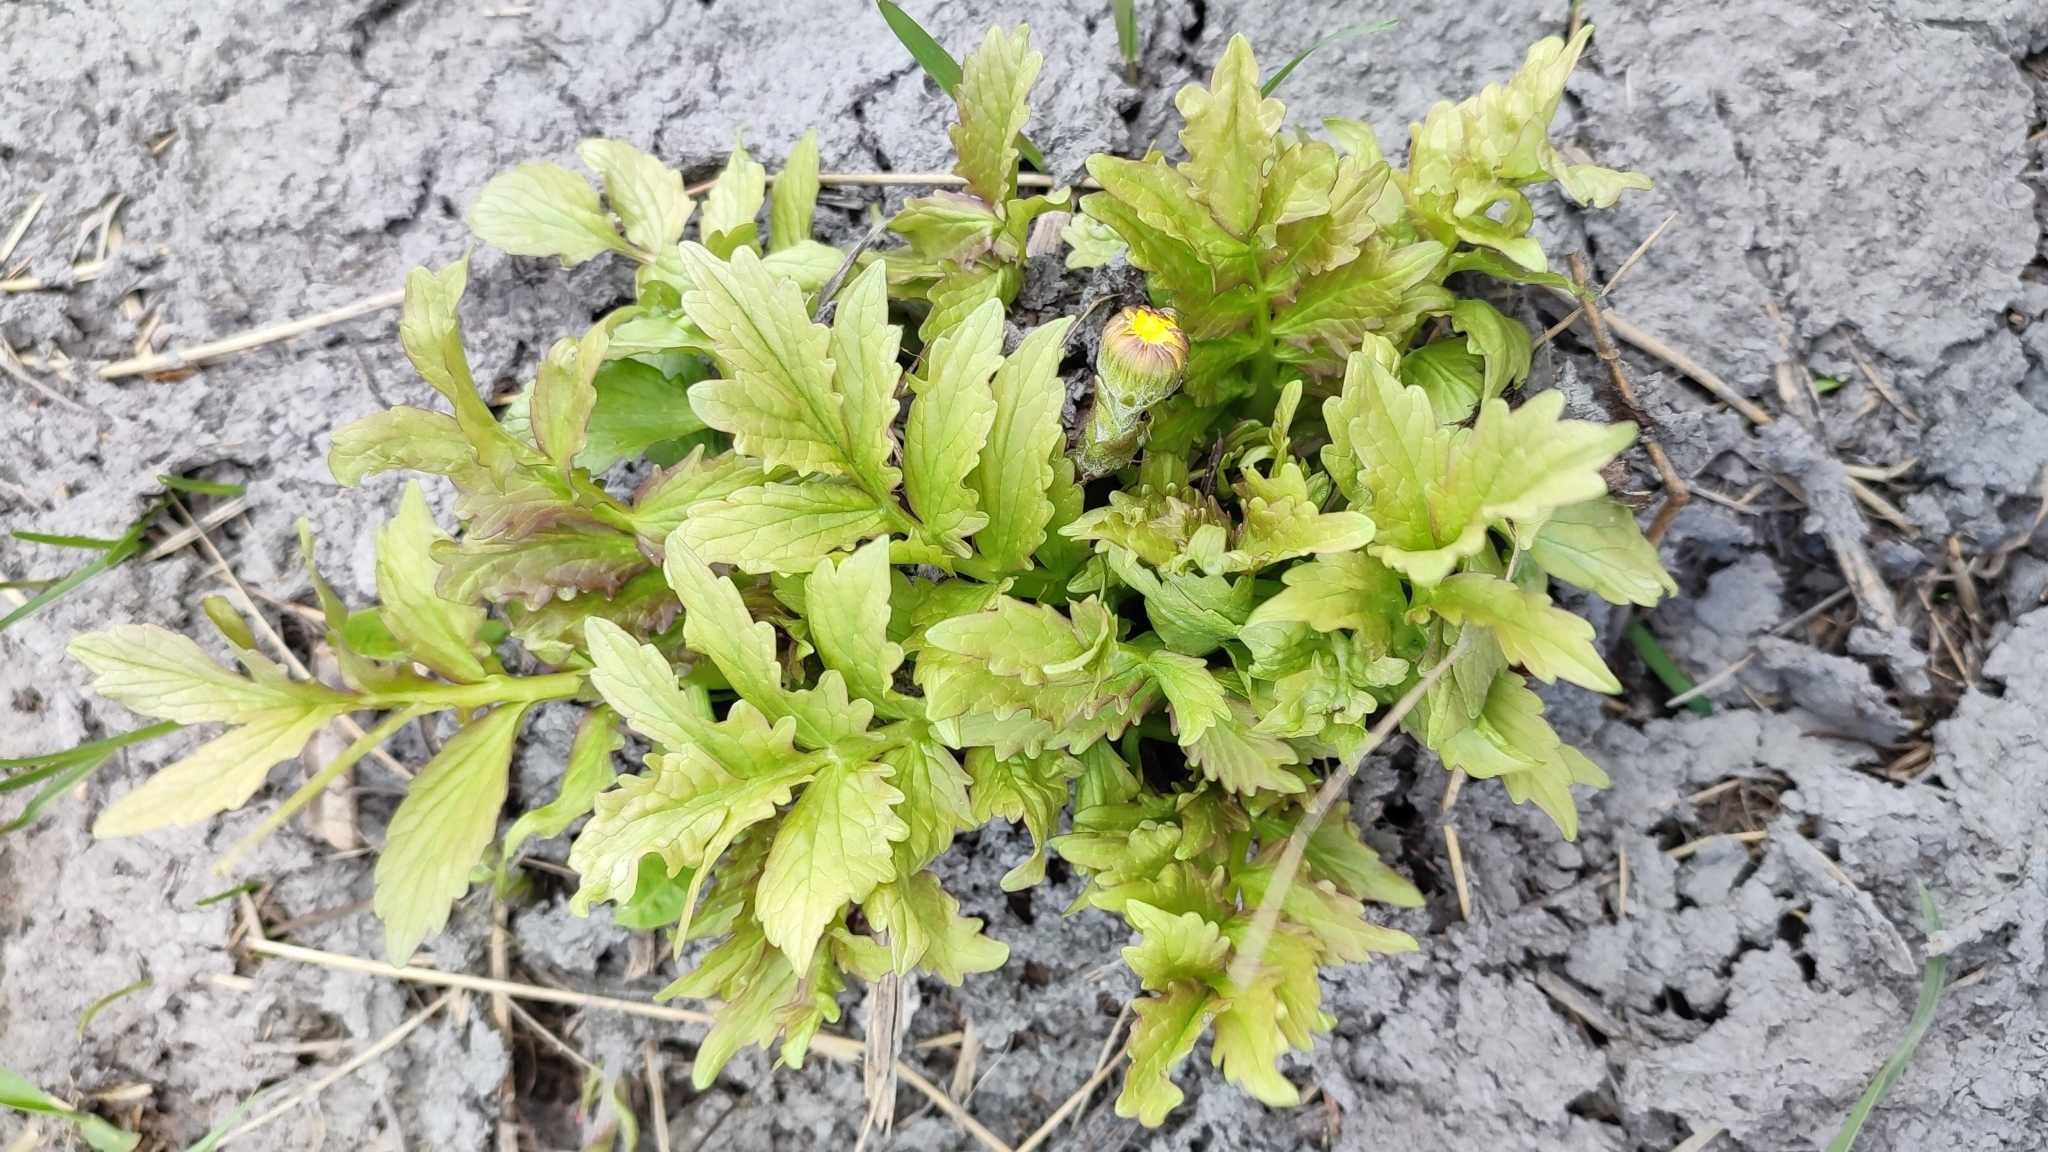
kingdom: Plantae
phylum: Tracheophyta
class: Magnoliopsida
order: Dipsacales
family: Caprifoliaceae
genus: Valeriana
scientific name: Valeriana wolgensis
